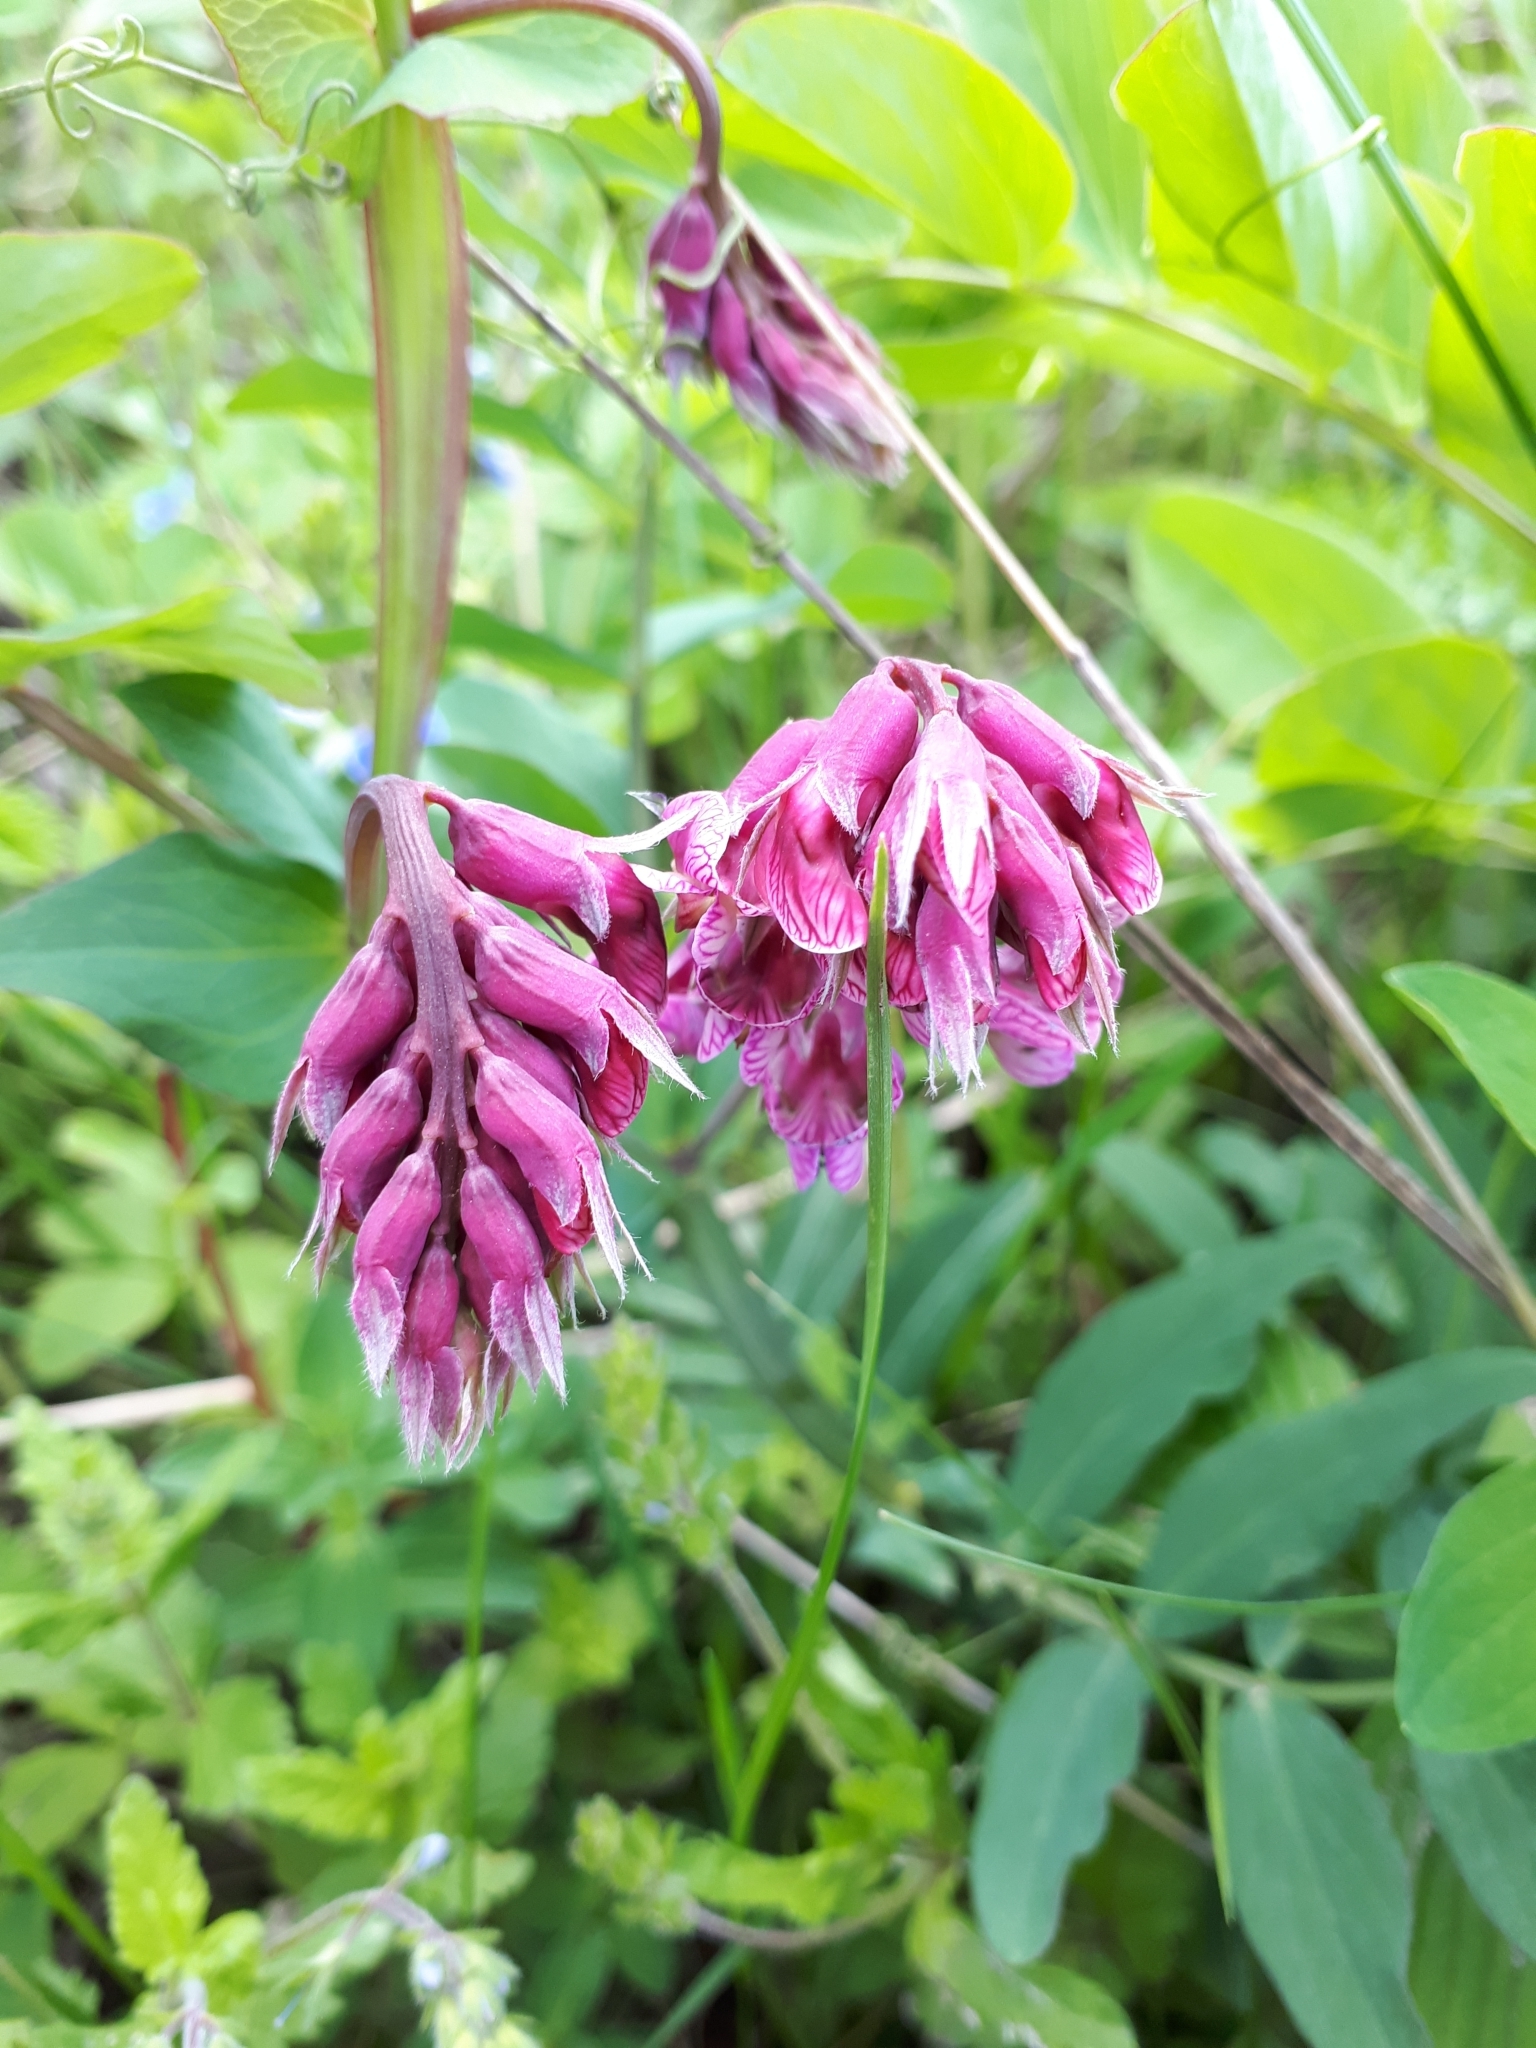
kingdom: Plantae
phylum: Tracheophyta
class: Magnoliopsida
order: Fabales
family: Fabaceae
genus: Lathyrus
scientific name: Lathyrus pisiformis
